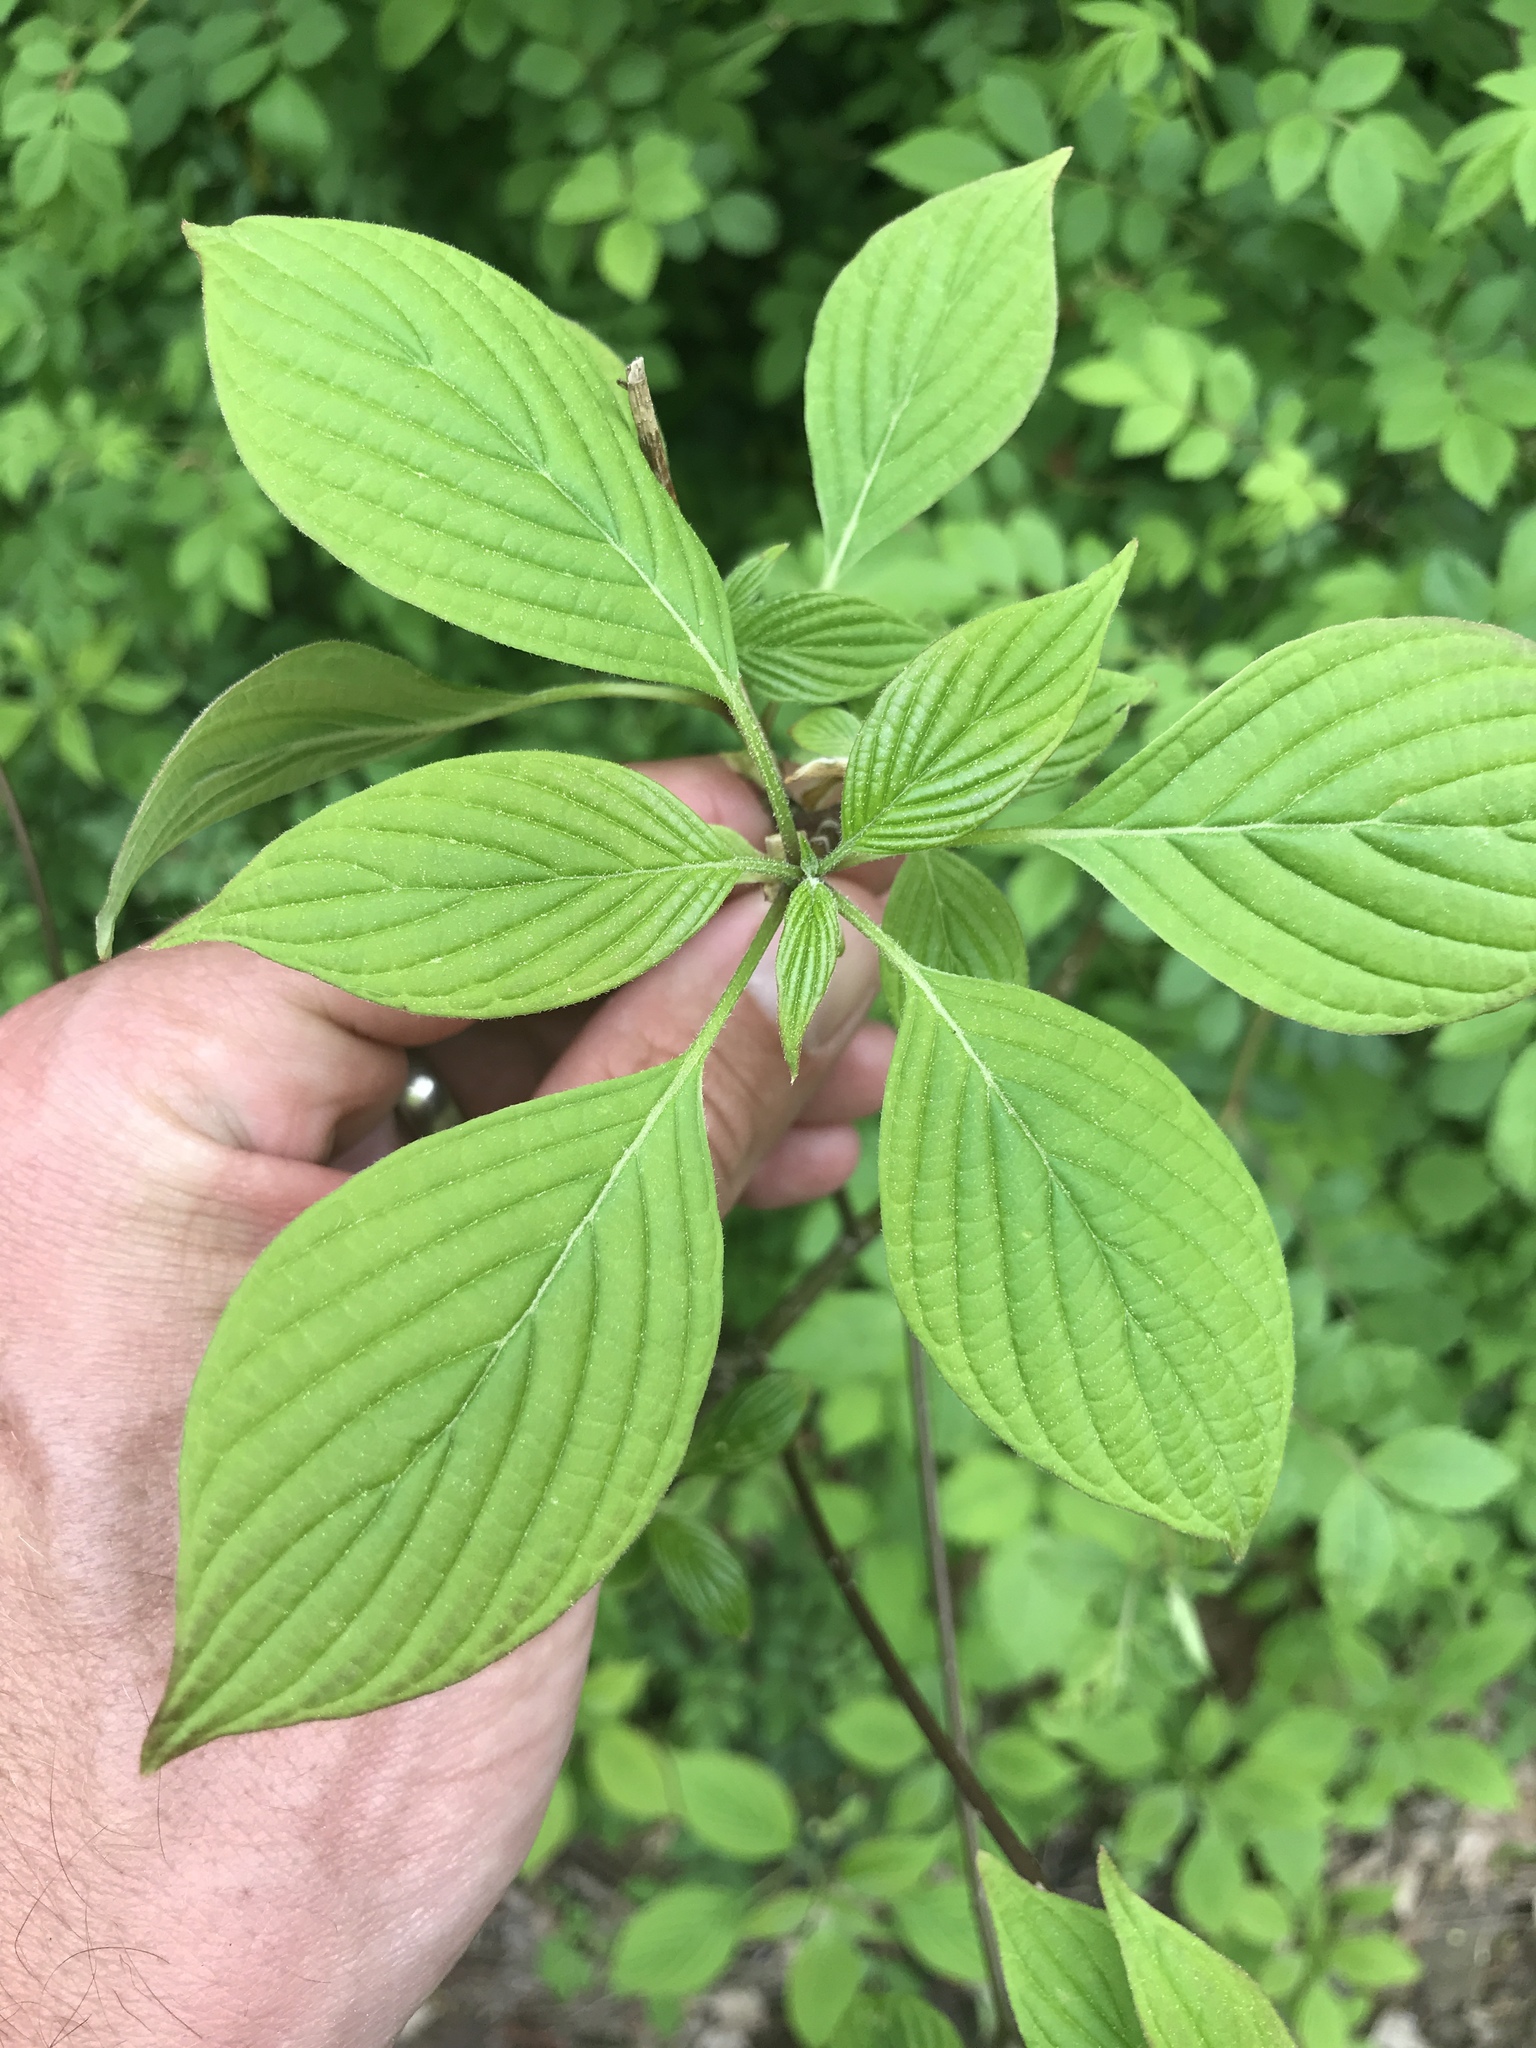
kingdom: Plantae
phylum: Tracheophyta
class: Magnoliopsida
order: Cornales
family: Cornaceae
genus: Cornus
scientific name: Cornus alternifolia
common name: Pagoda dogwood
